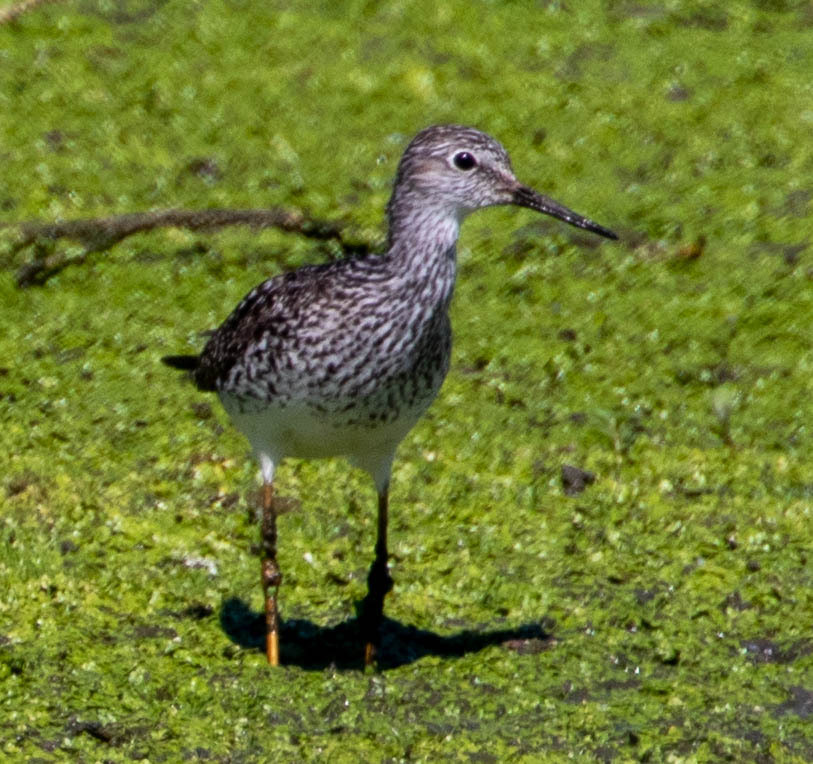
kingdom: Animalia
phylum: Chordata
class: Aves
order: Charadriiformes
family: Scolopacidae
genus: Tringa
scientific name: Tringa flavipes
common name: Lesser yellowlegs
